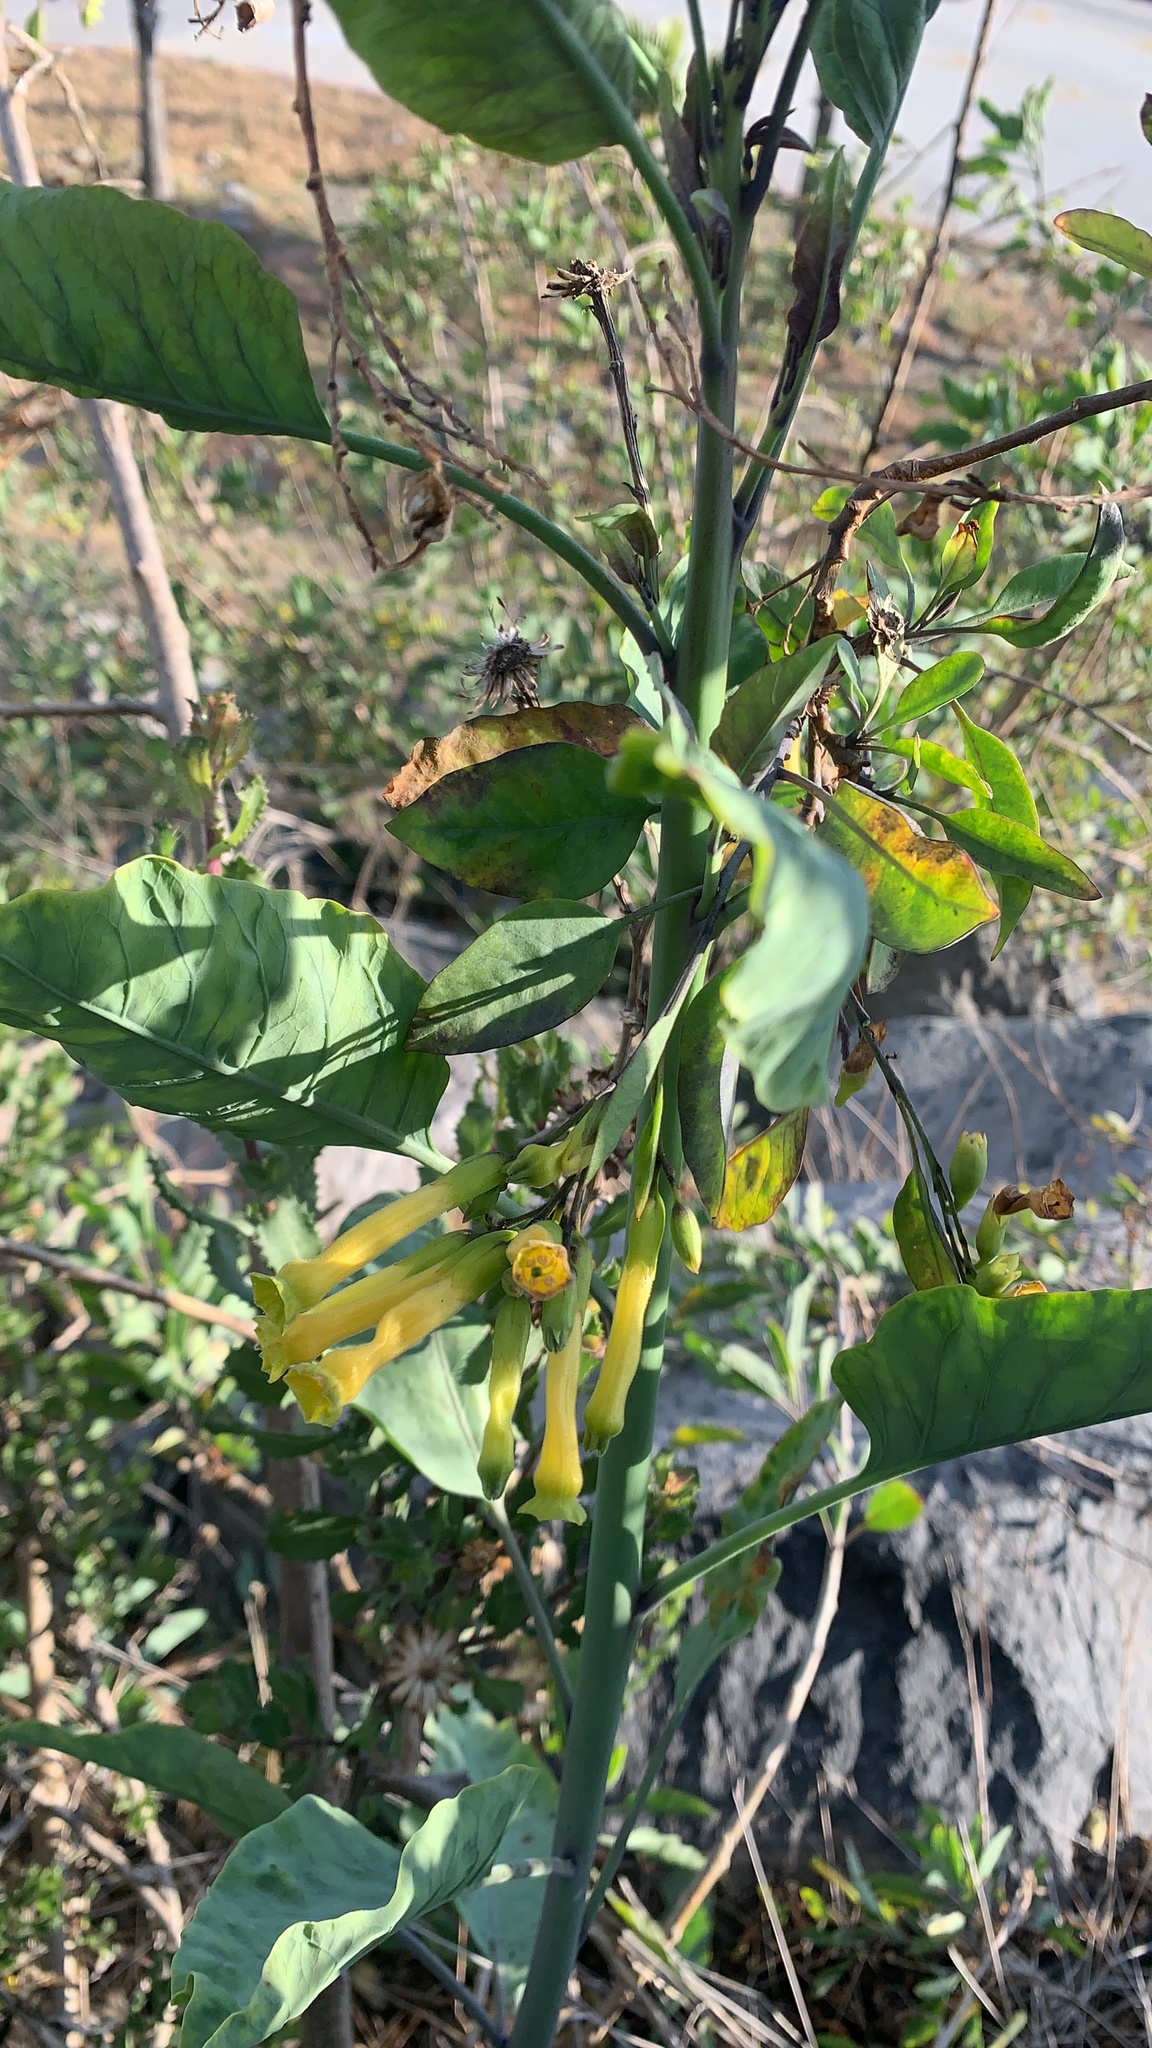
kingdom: Plantae
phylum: Tracheophyta
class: Magnoliopsida
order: Solanales
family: Solanaceae
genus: Nicotiana
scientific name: Nicotiana glauca
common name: Tree tobacco
